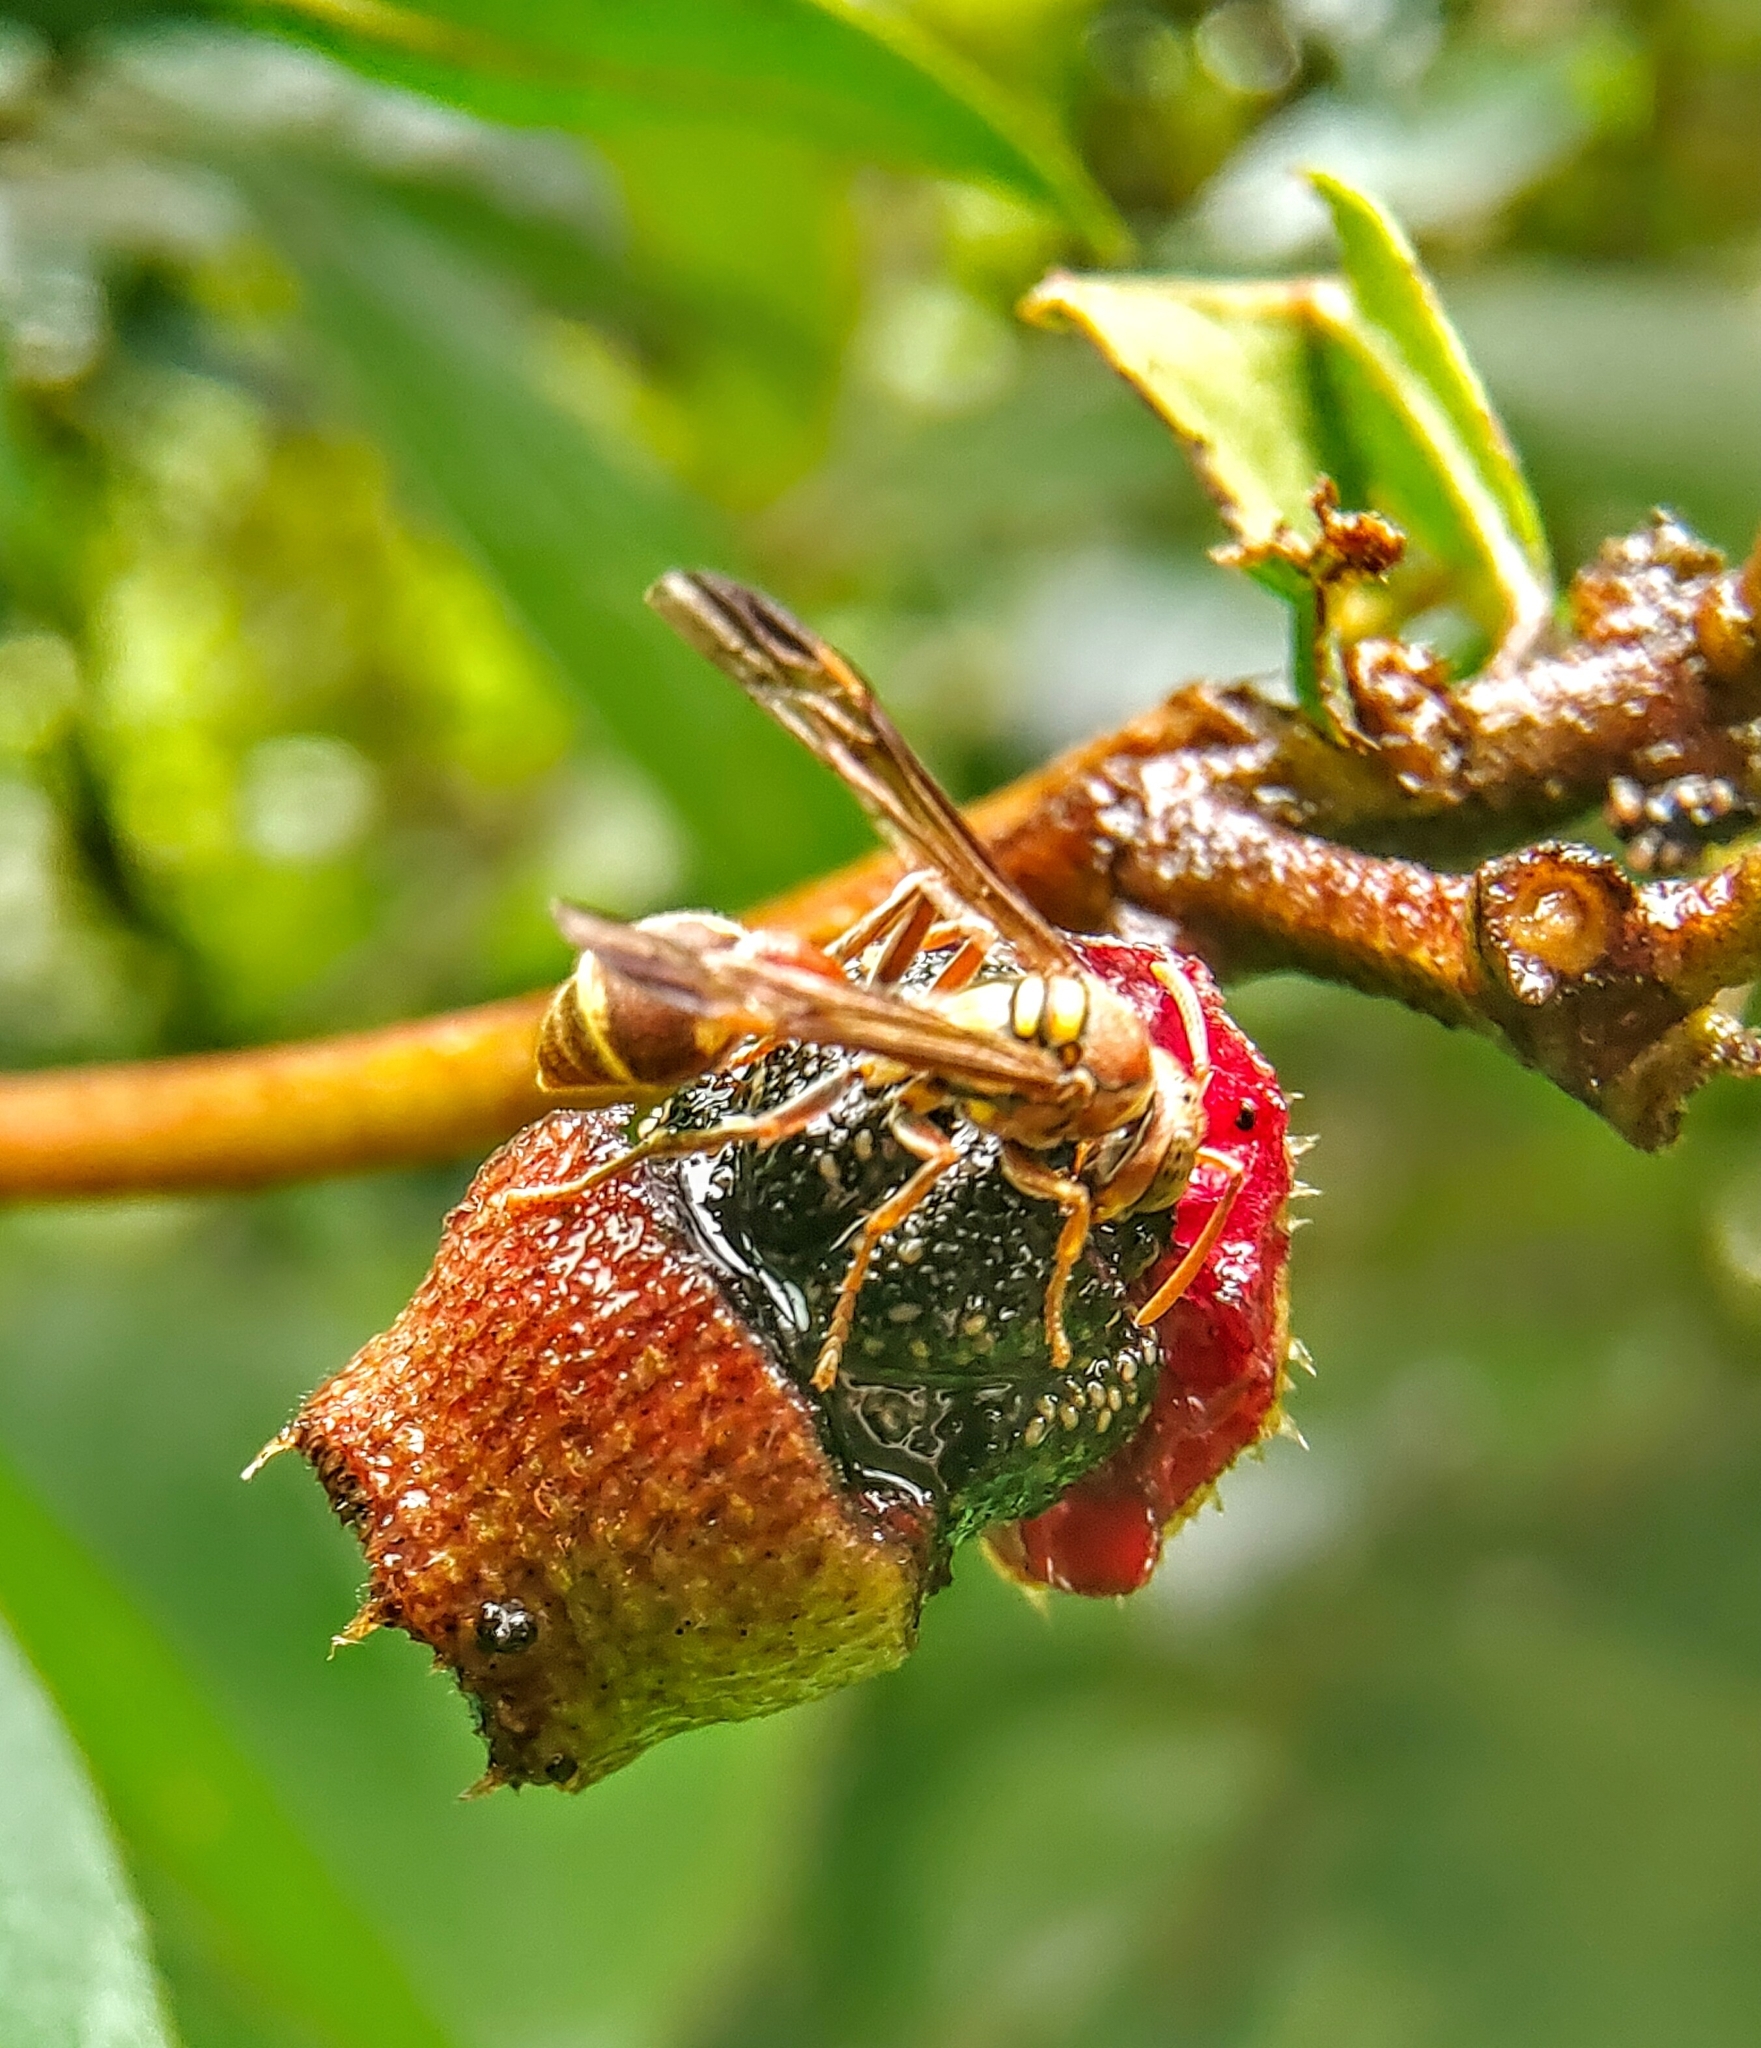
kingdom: Animalia
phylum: Arthropoda
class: Insecta
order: Hymenoptera
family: Vespidae
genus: Ropalidia
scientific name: Ropalidia stigma
